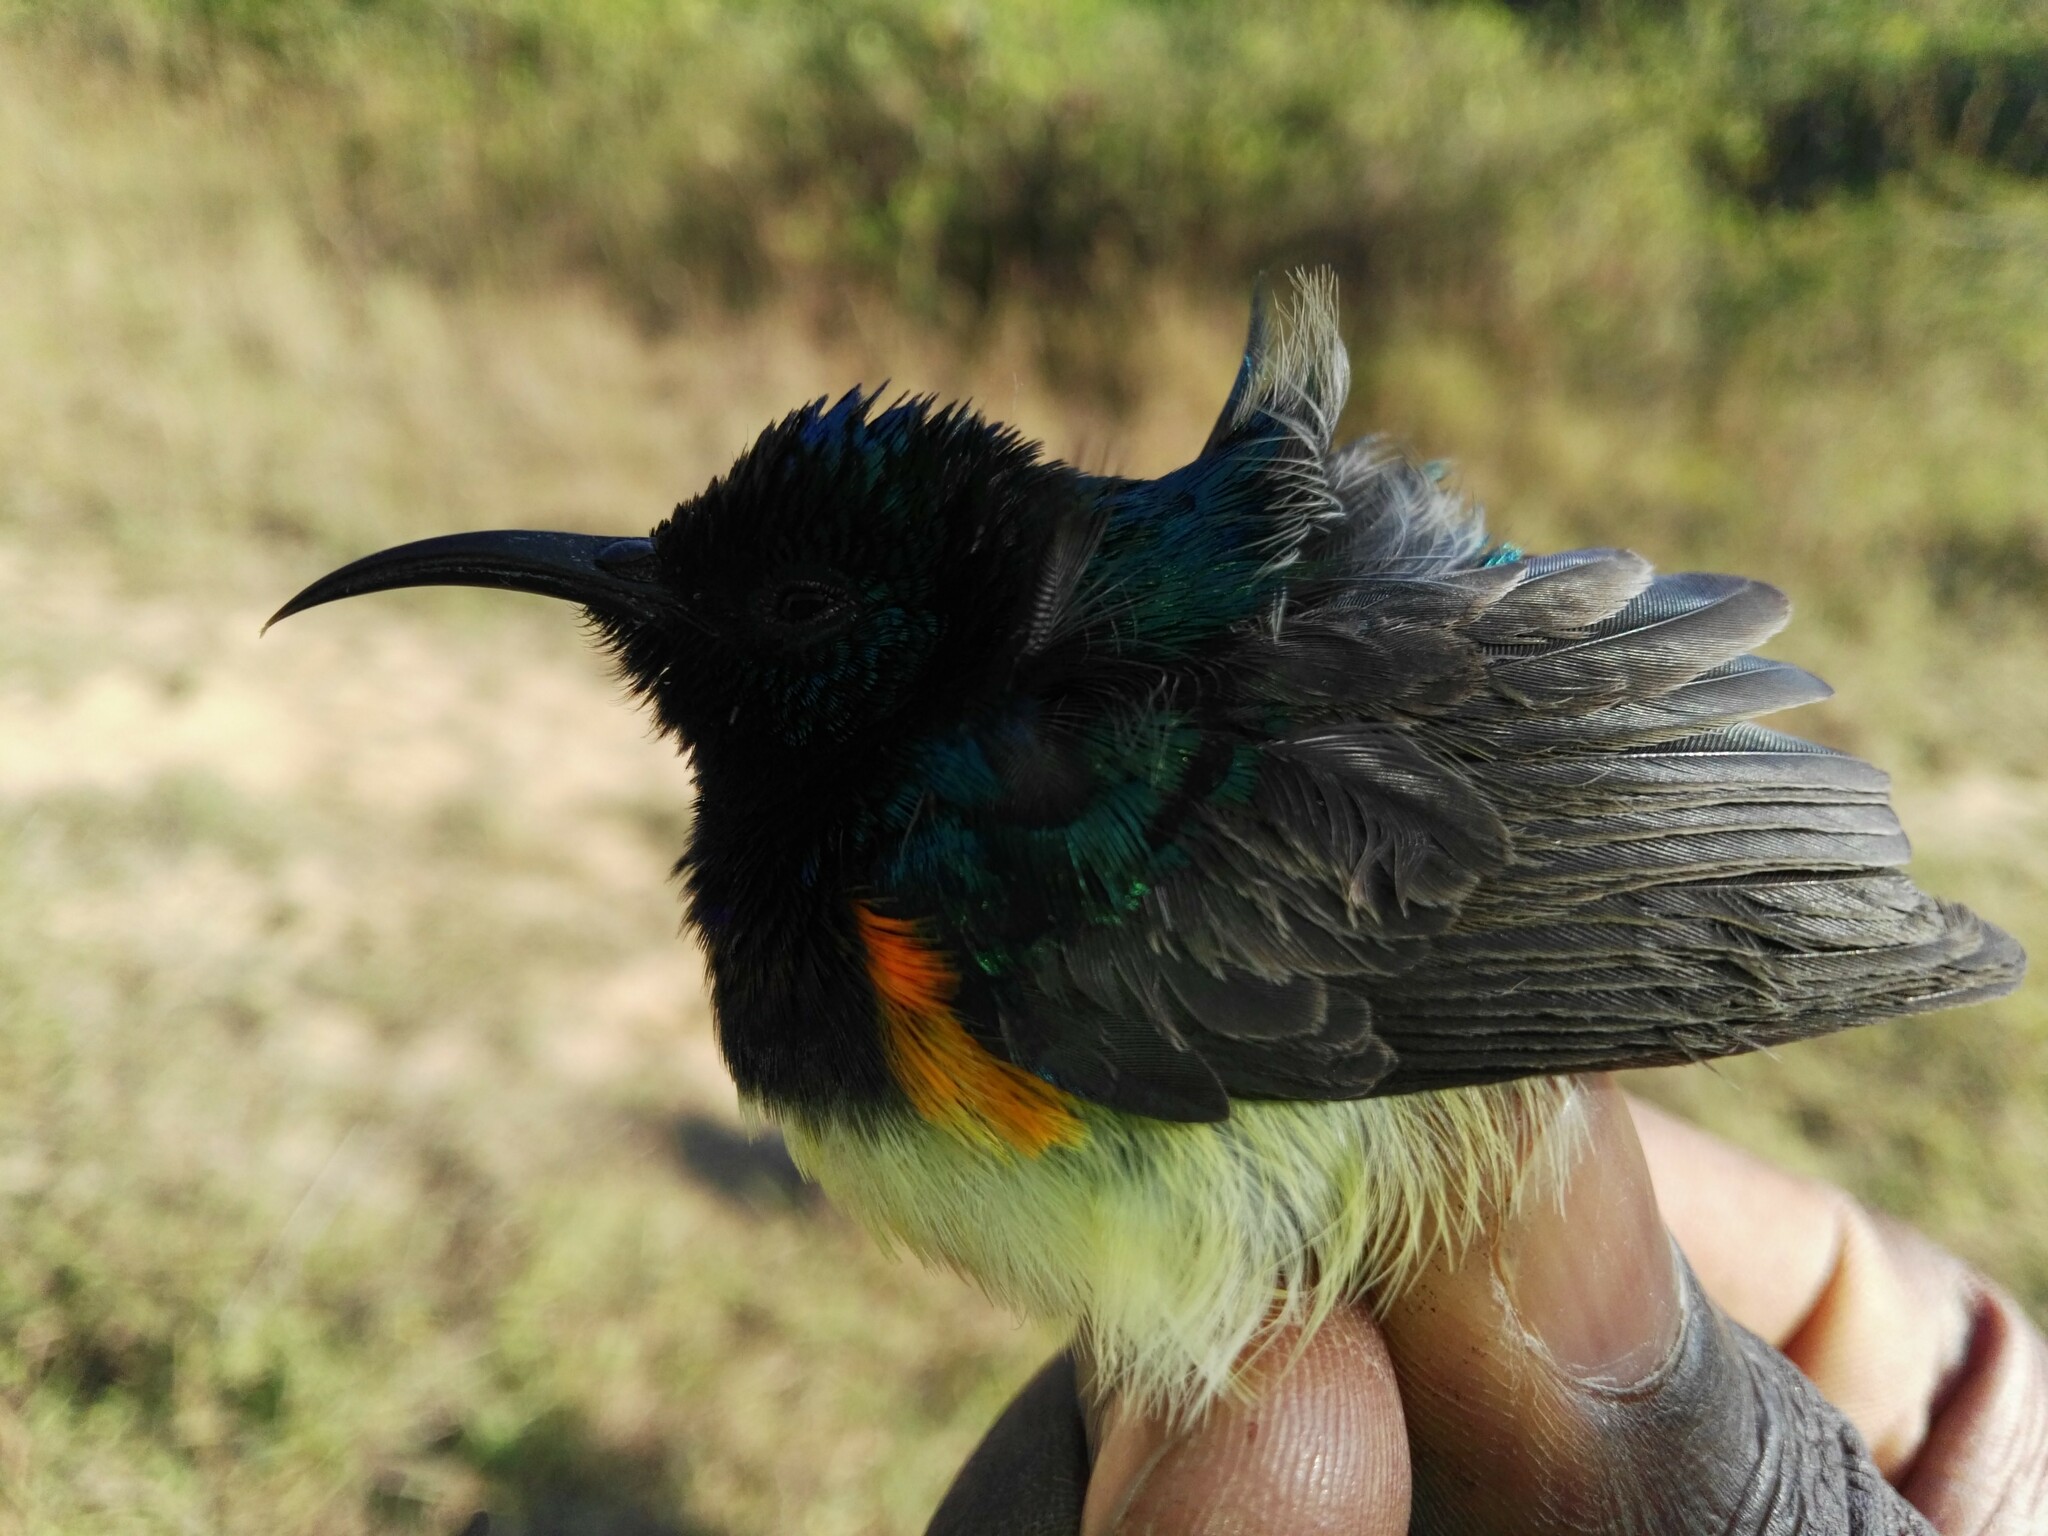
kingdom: Animalia
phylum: Chordata
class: Aves
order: Passeriformes
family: Nectariniidae
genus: Cinnyris
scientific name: Cinnyris venustus
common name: Variable sunbird
